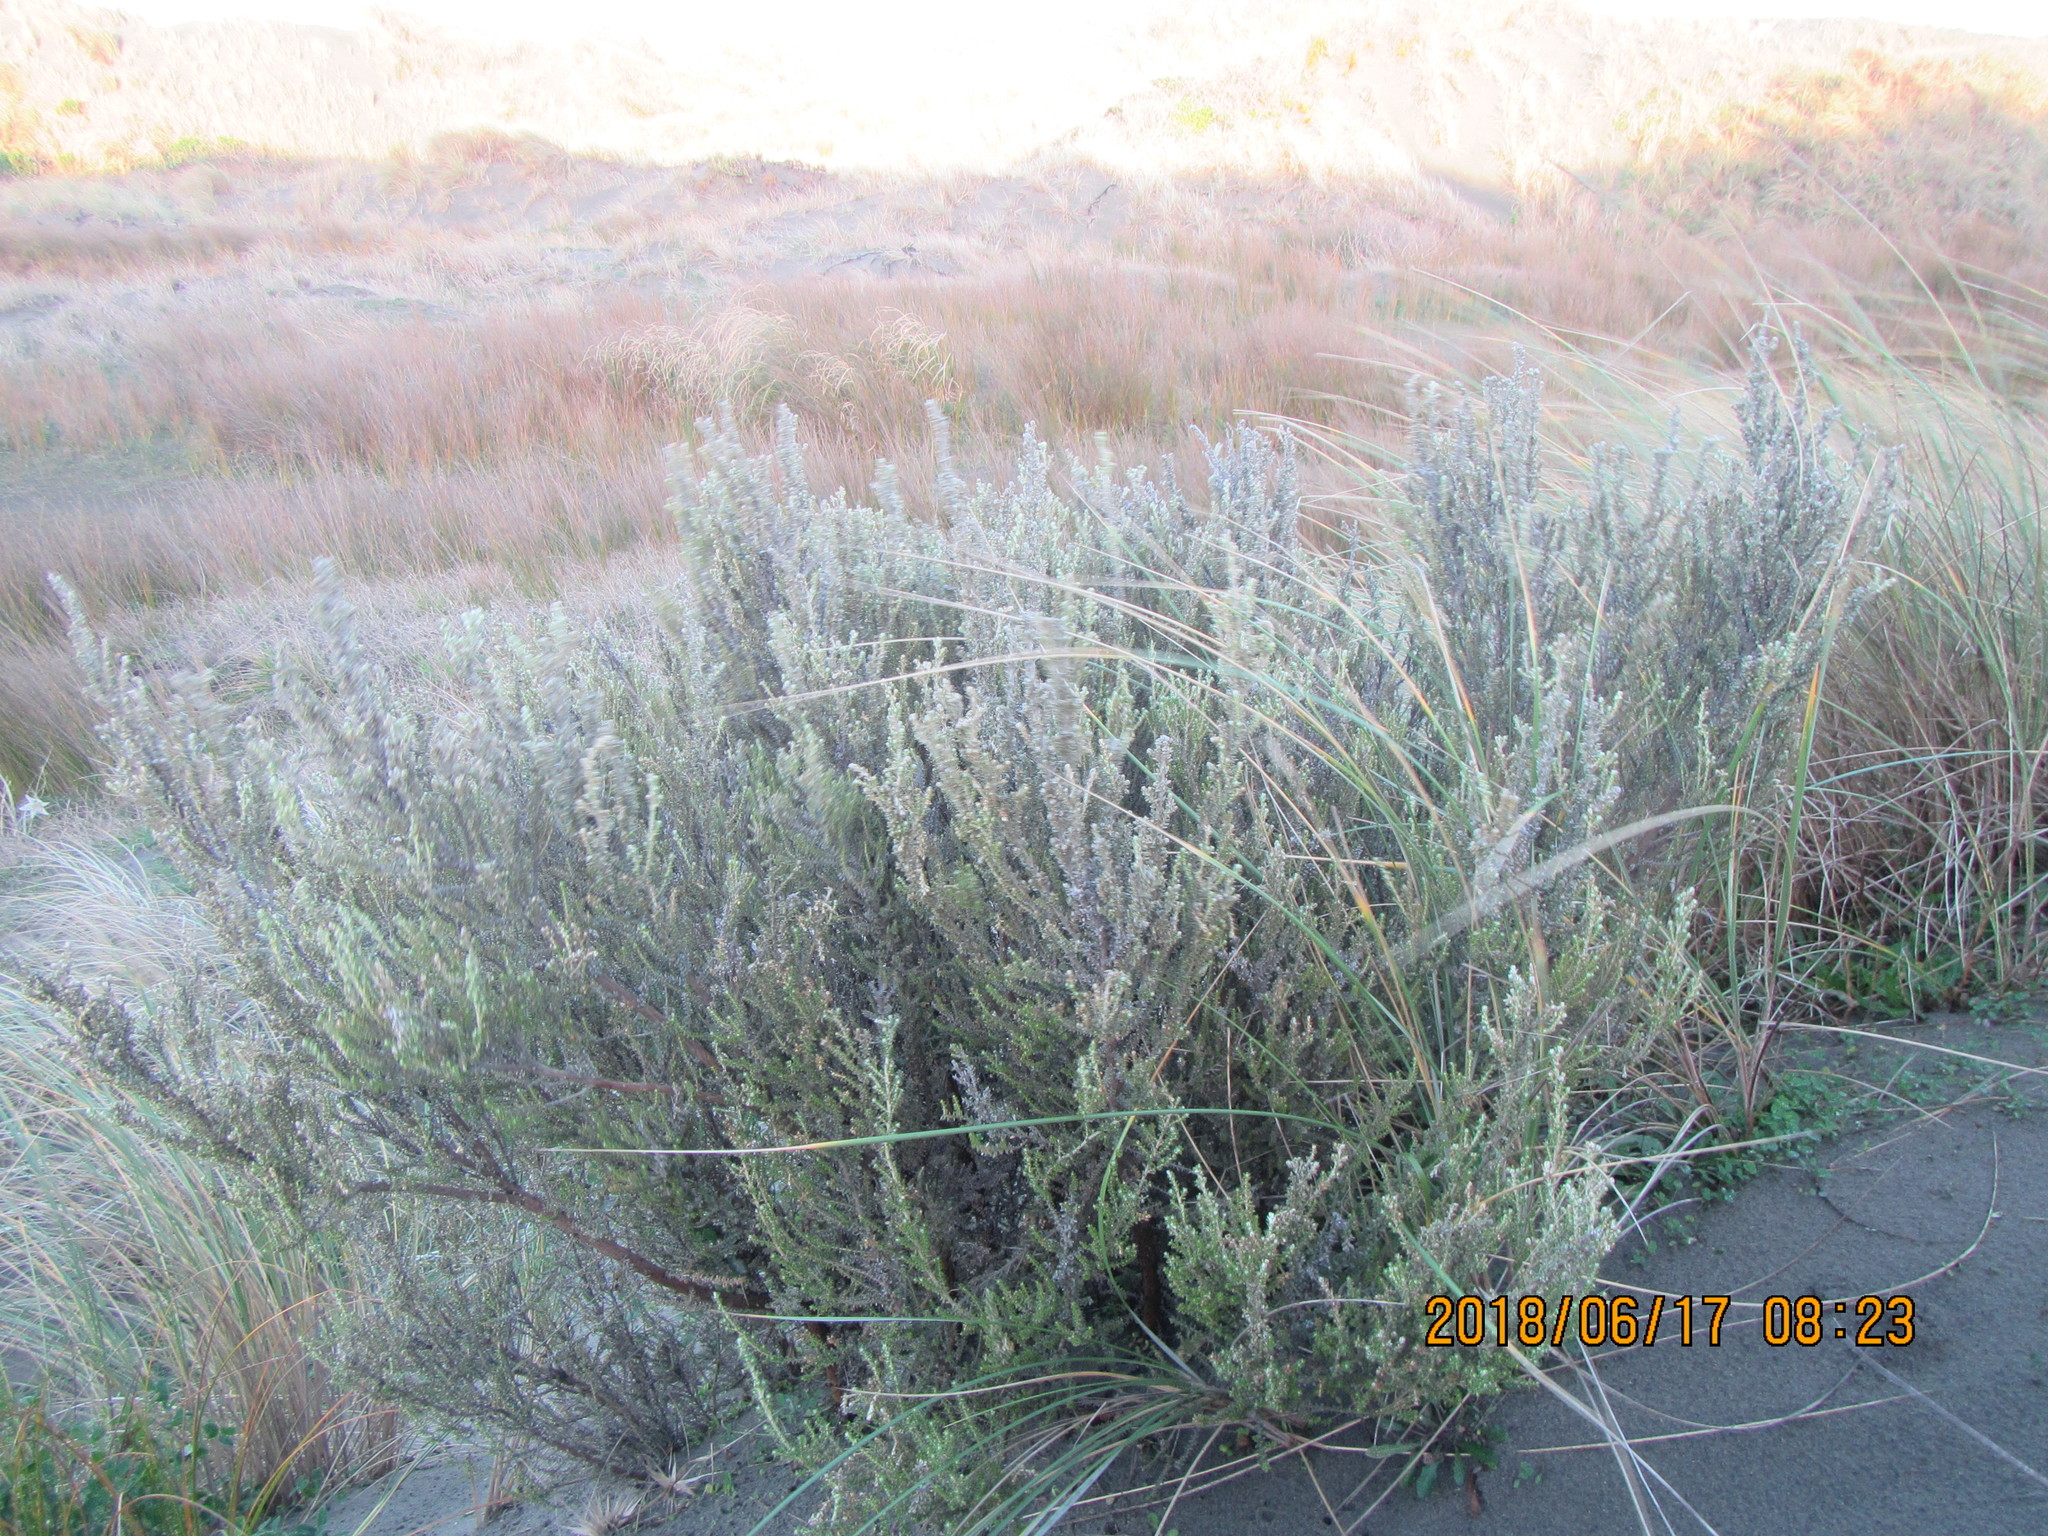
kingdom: Plantae
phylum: Tracheophyta
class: Magnoliopsida
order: Asterales
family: Asteraceae
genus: Ozothamnus
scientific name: Ozothamnus leptophyllus
